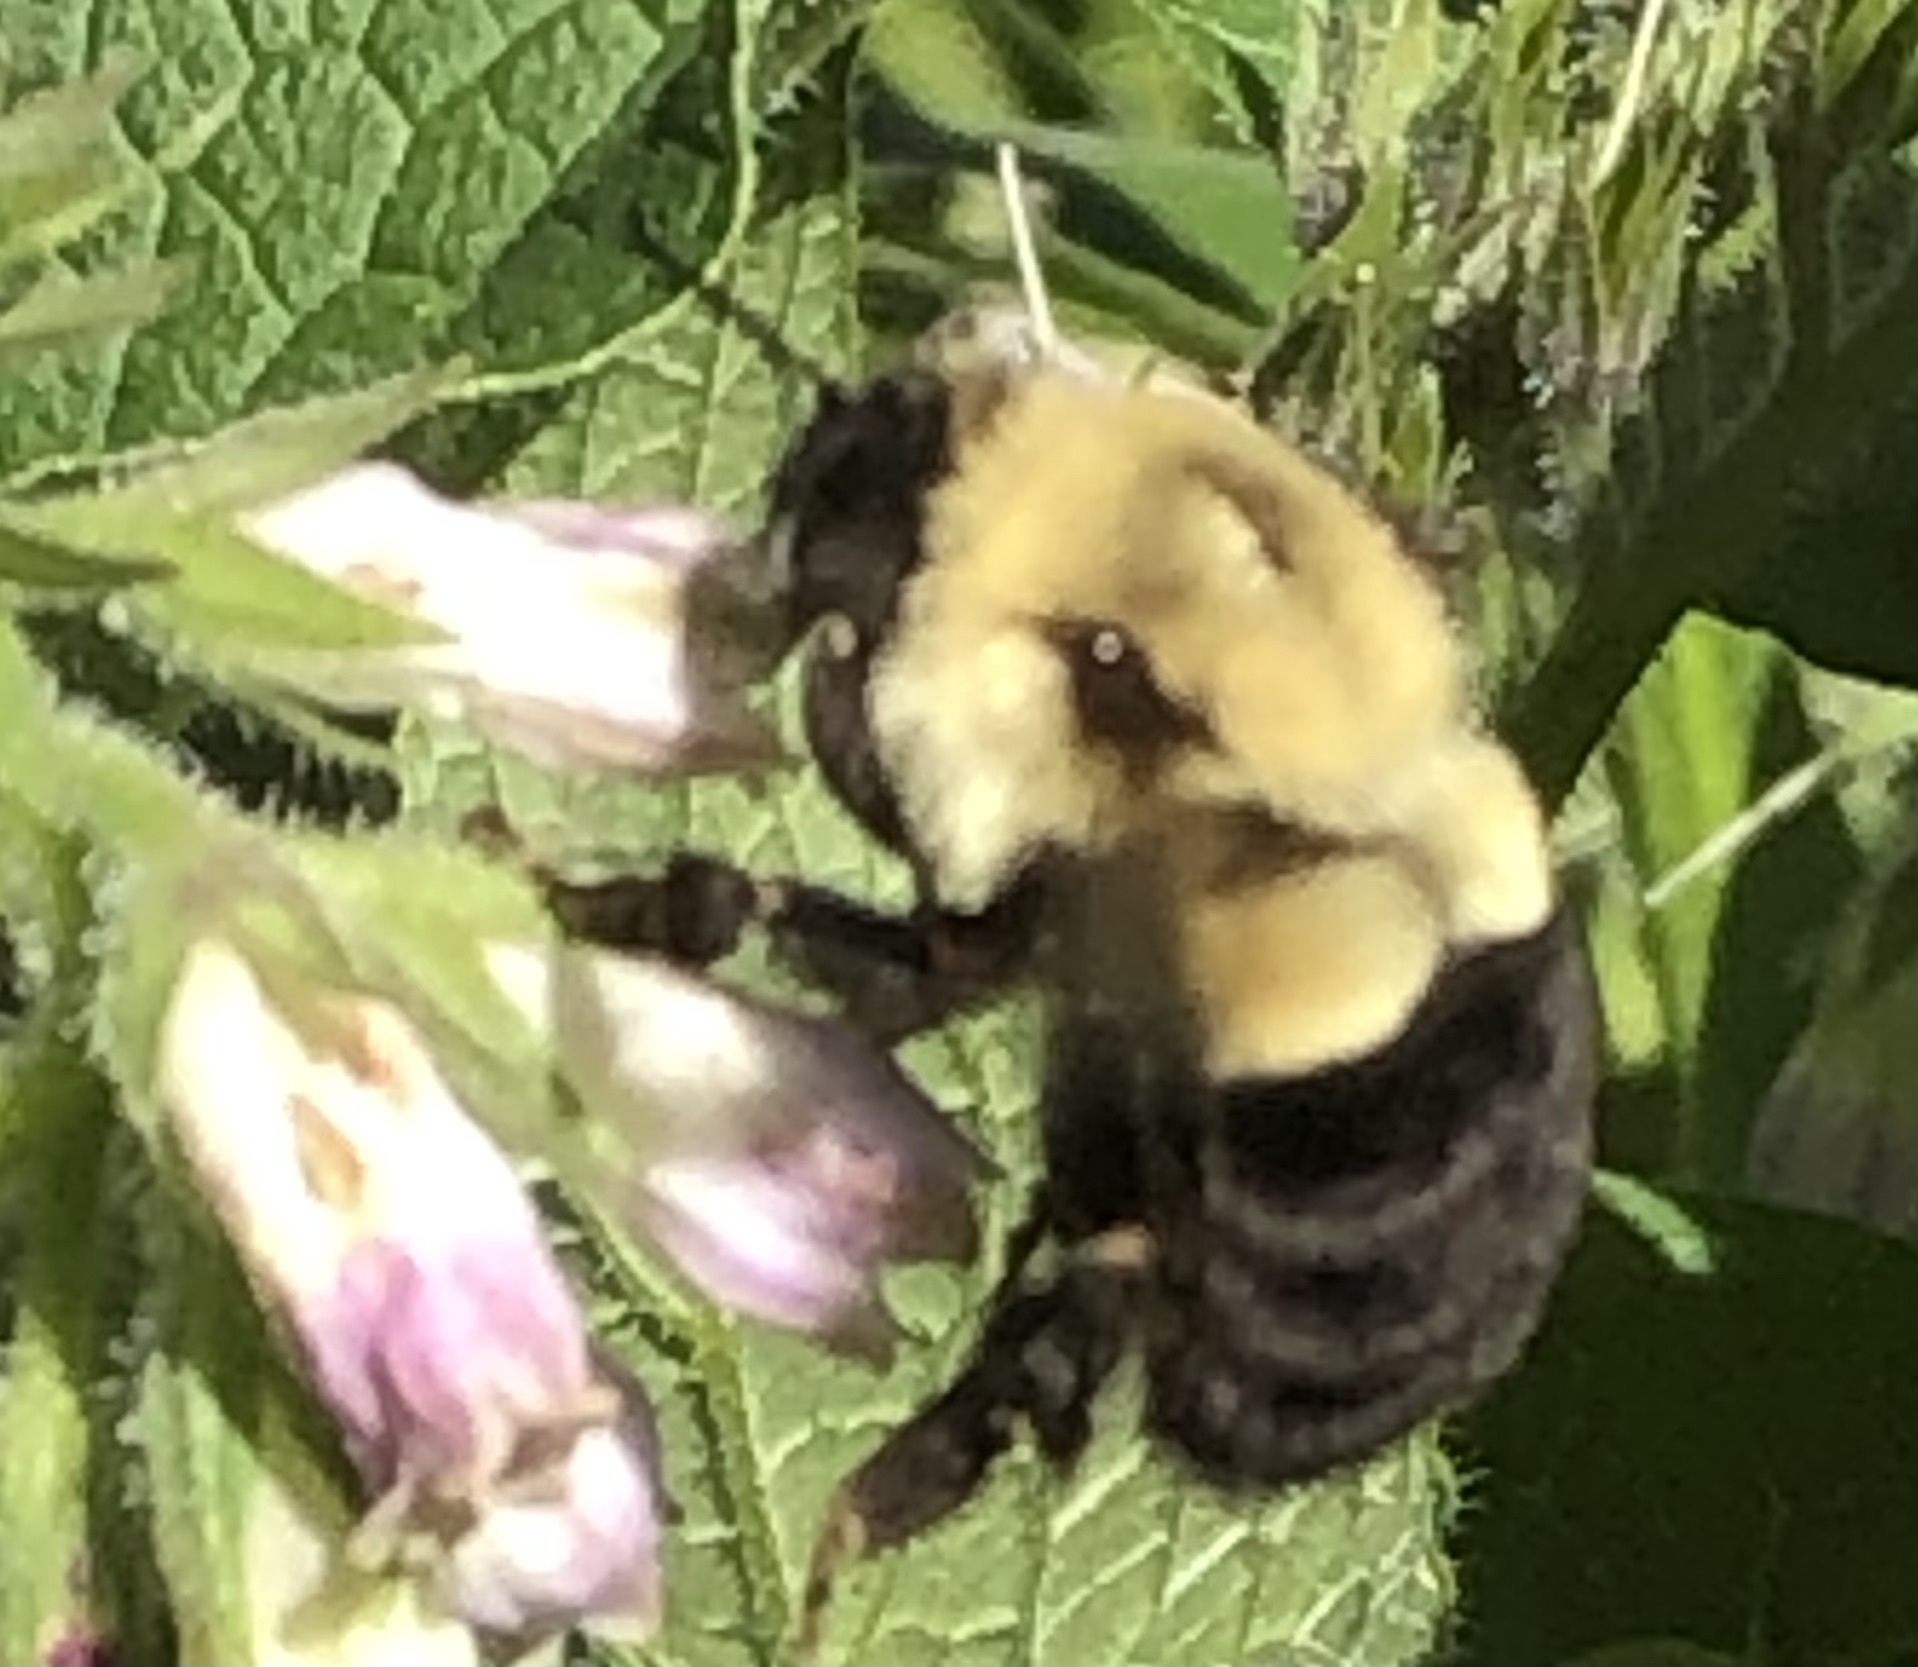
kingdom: Animalia
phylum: Arthropoda
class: Insecta
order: Hymenoptera
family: Apidae
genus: Bombus
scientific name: Bombus impatiens
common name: Common eastern bumble bee
